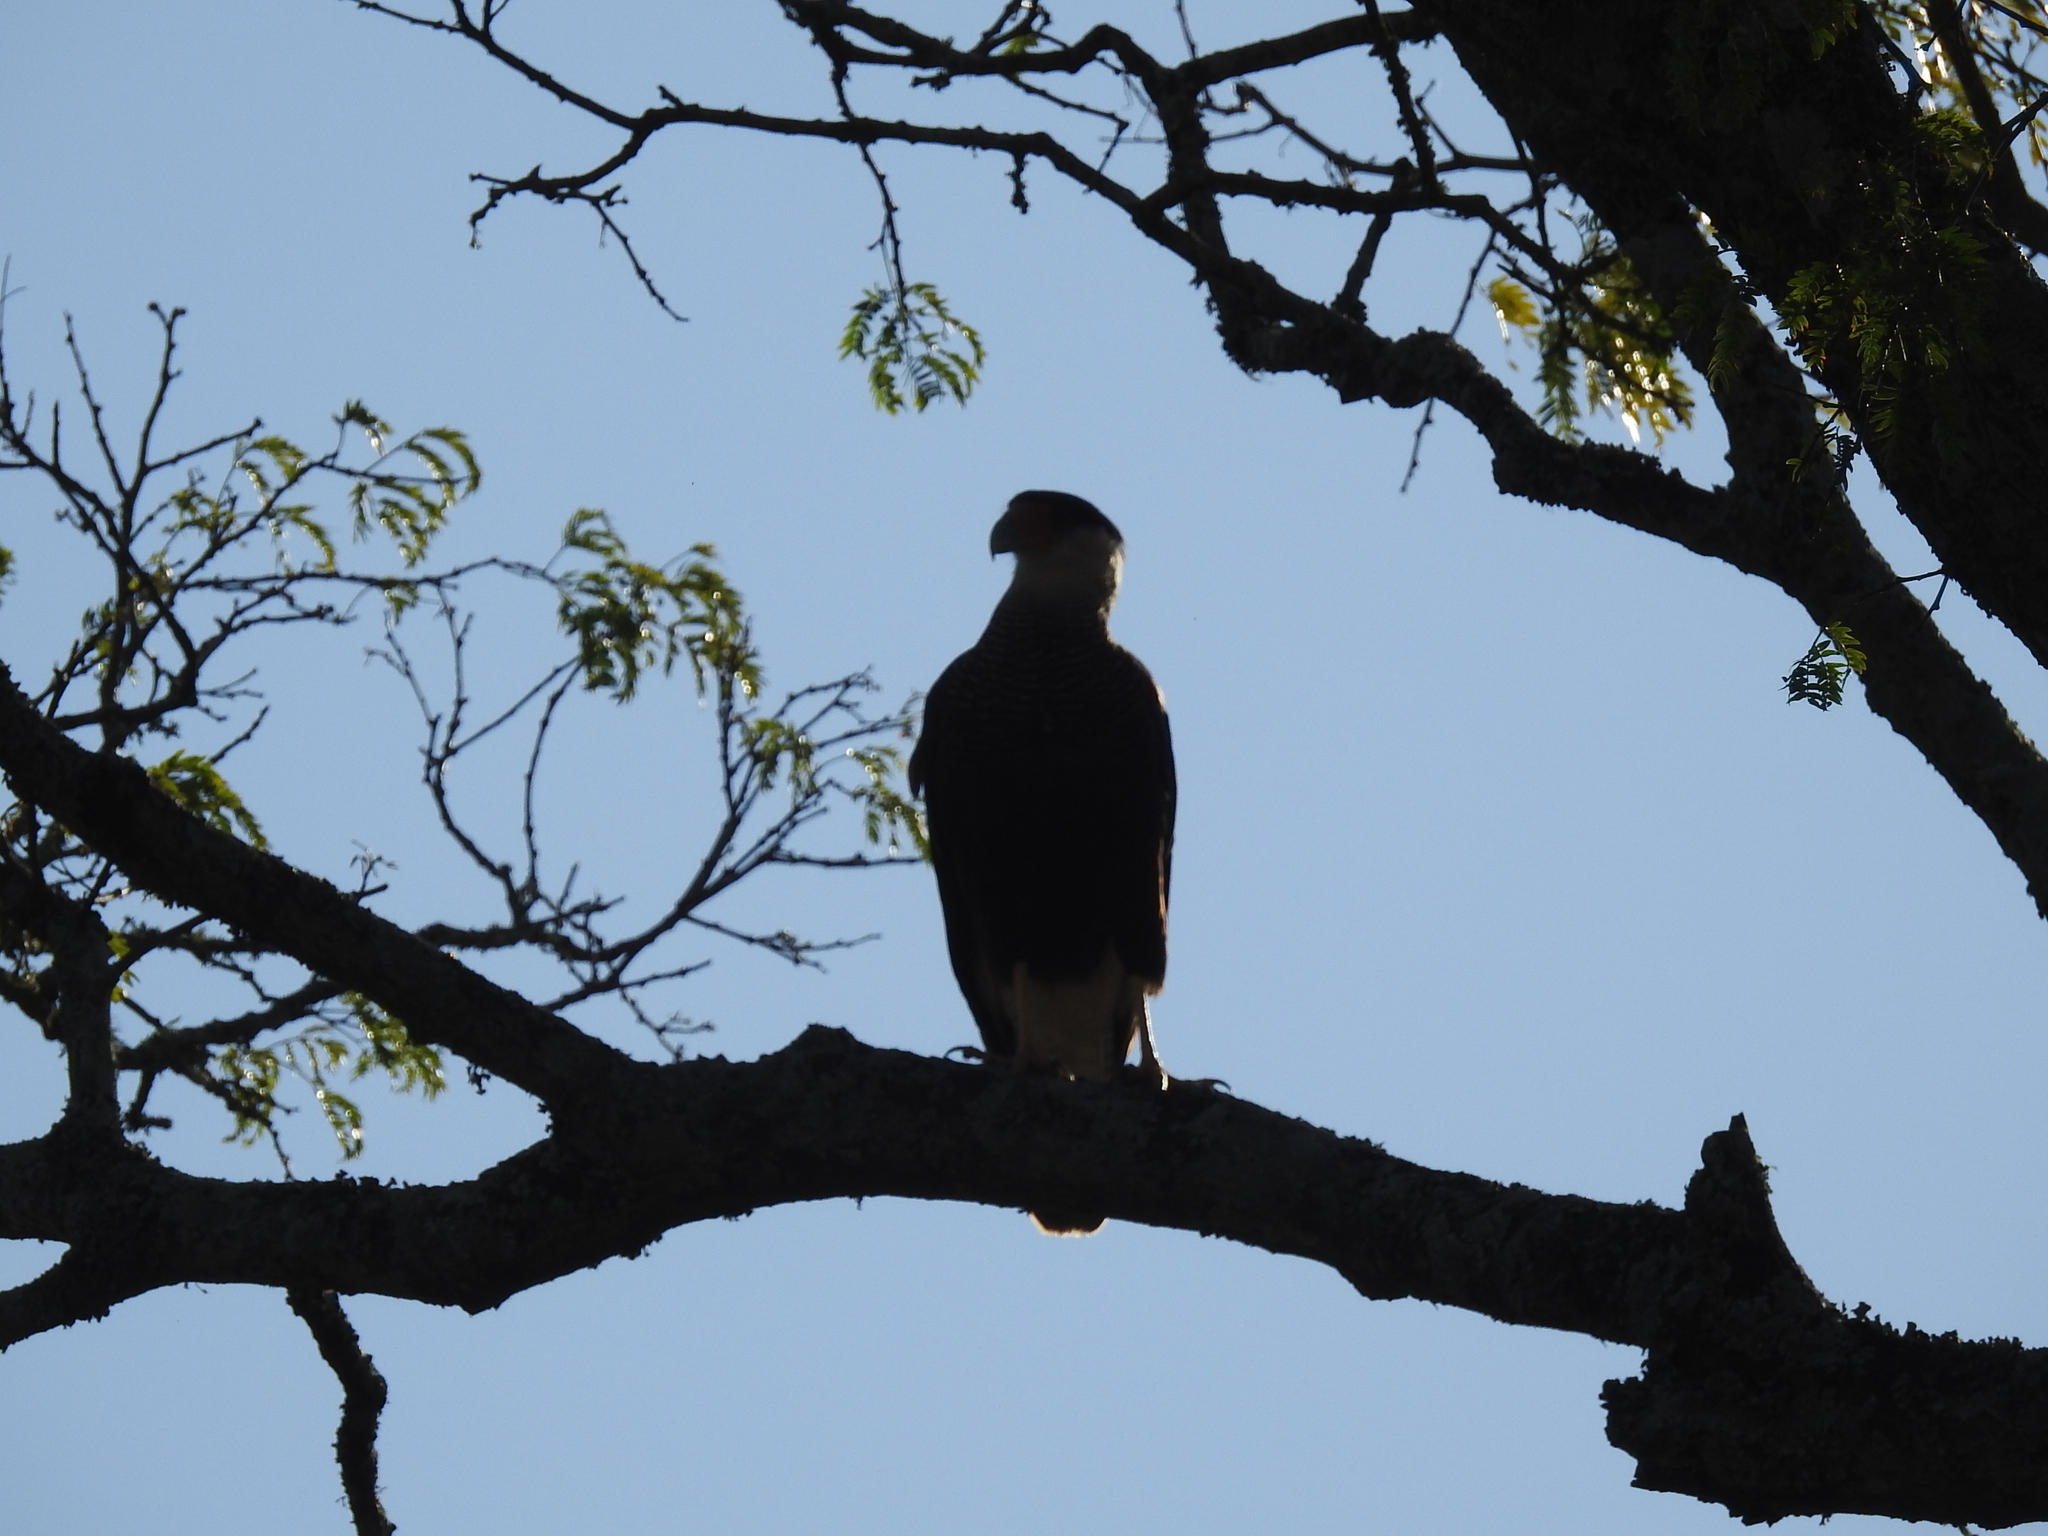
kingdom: Animalia
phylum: Chordata
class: Aves
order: Falconiformes
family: Falconidae
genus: Caracara
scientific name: Caracara plancus
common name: Southern caracara
